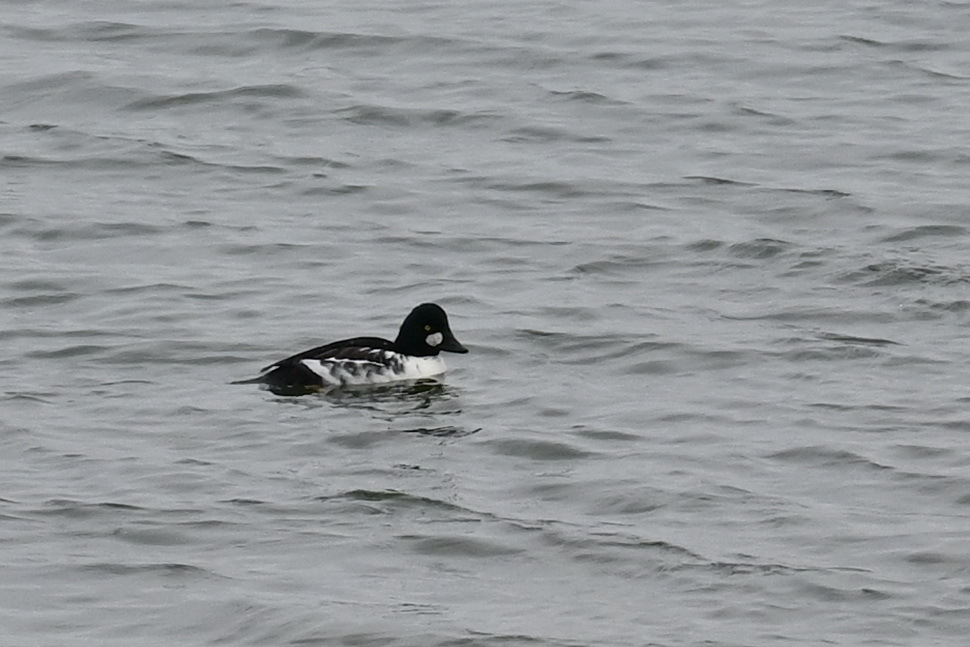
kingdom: Animalia
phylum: Chordata
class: Aves
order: Anseriformes
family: Anatidae
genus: Bucephala
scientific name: Bucephala clangula
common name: Common goldeneye
